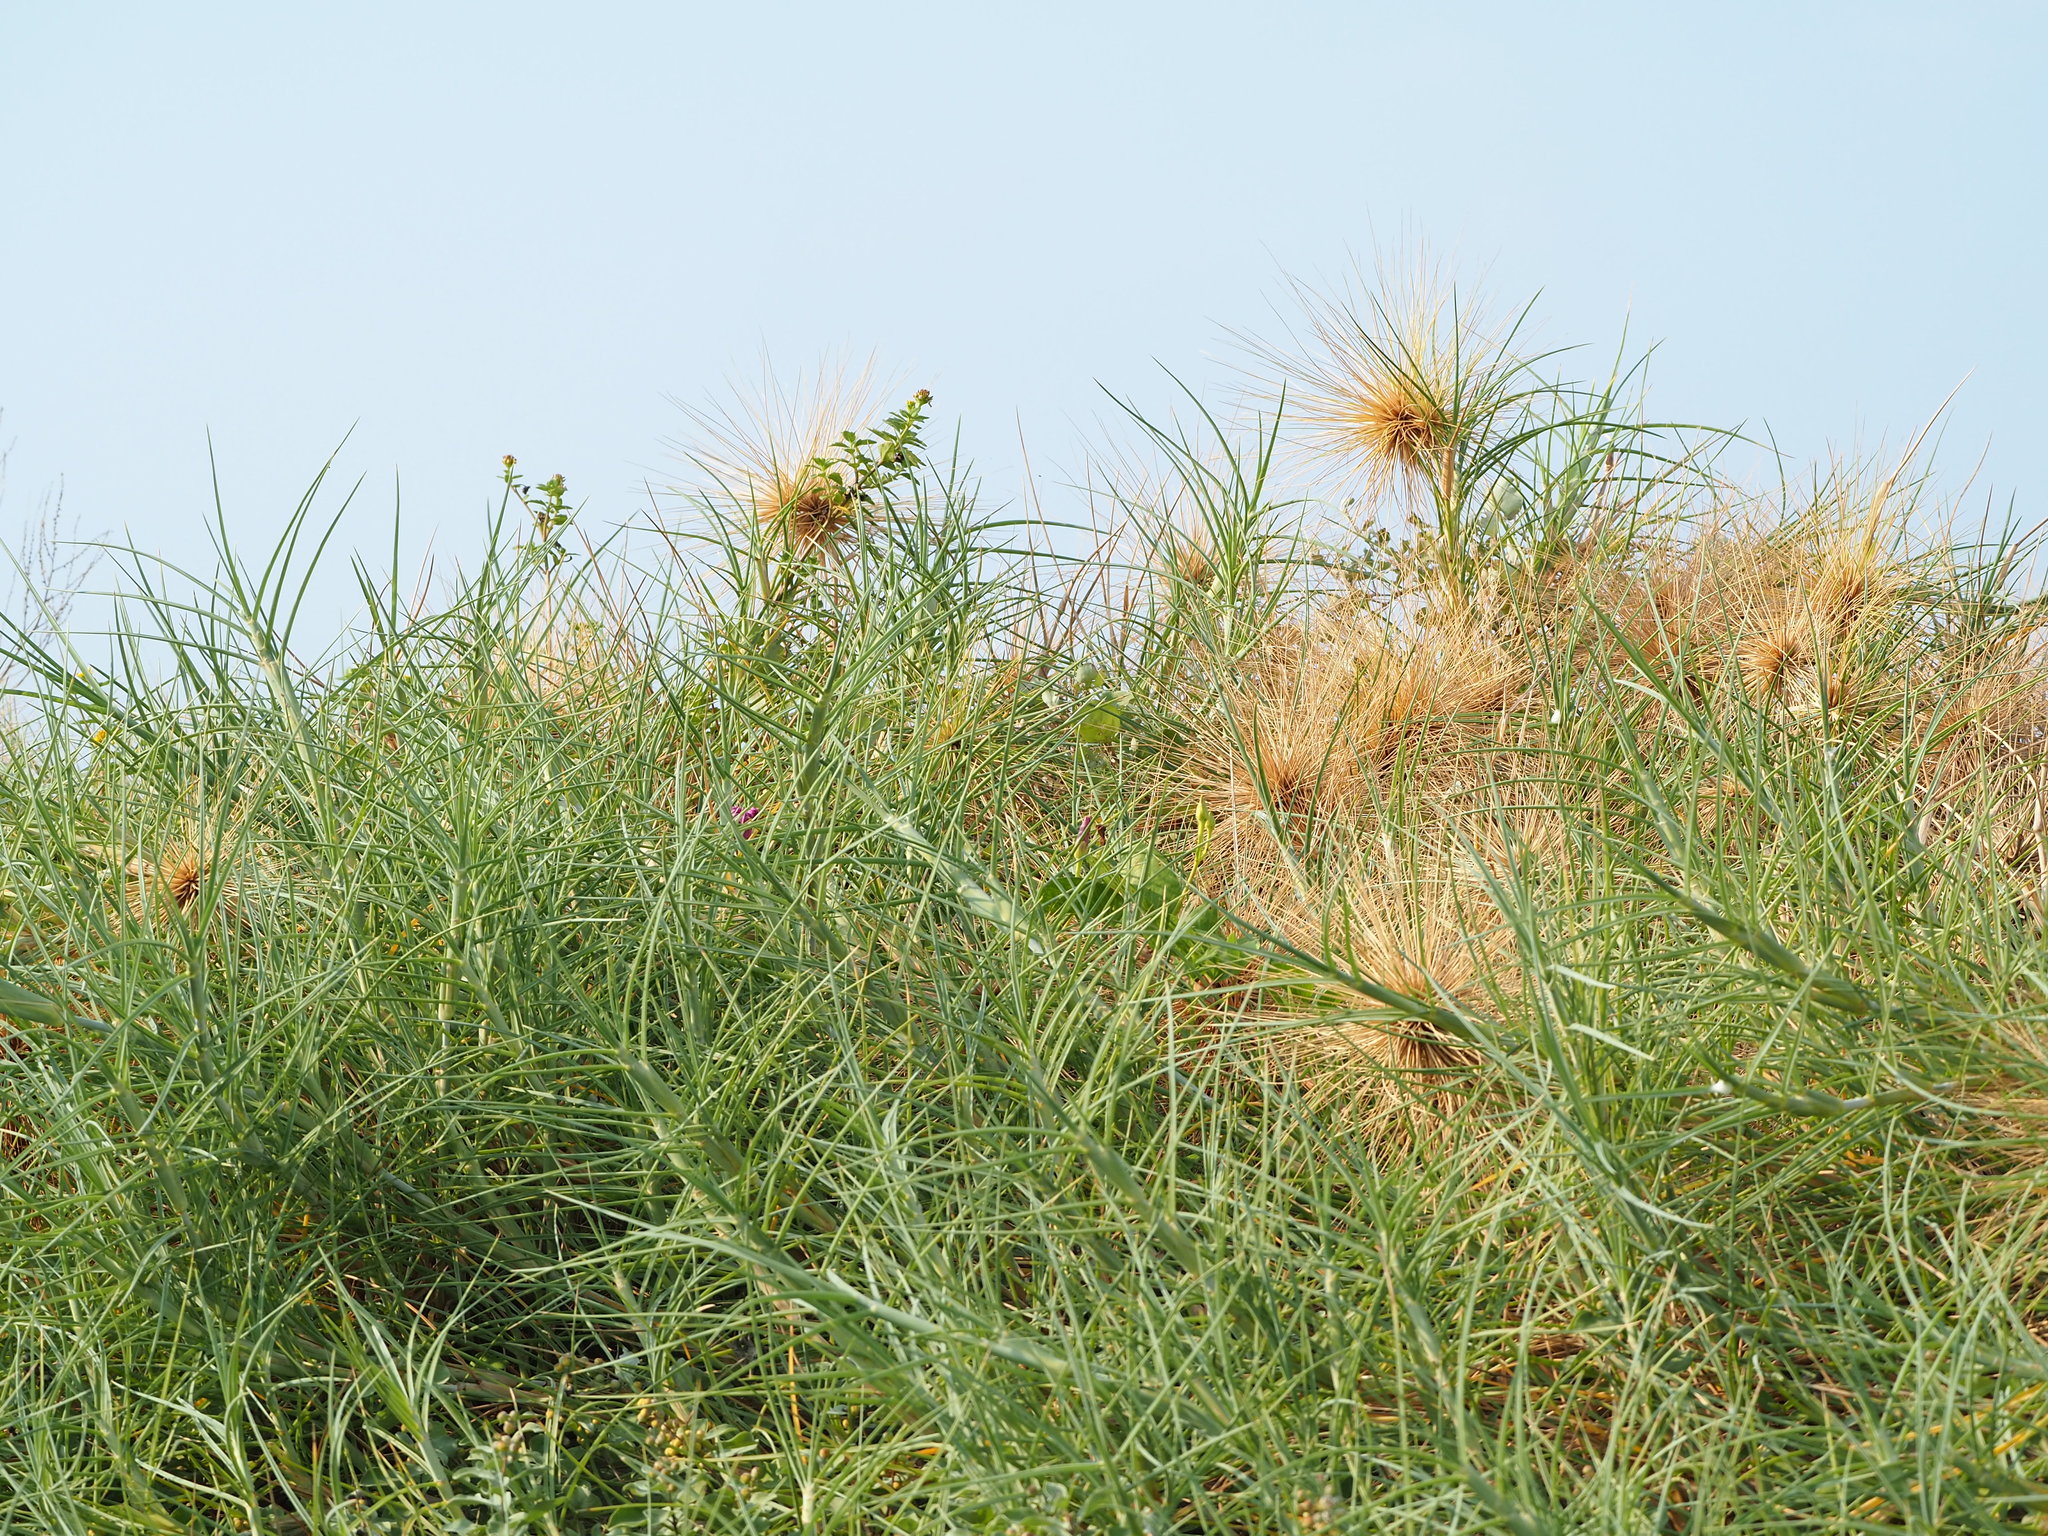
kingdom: Plantae
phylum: Tracheophyta
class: Liliopsida
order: Poales
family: Poaceae
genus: Spinifex
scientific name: Spinifex littoreus
